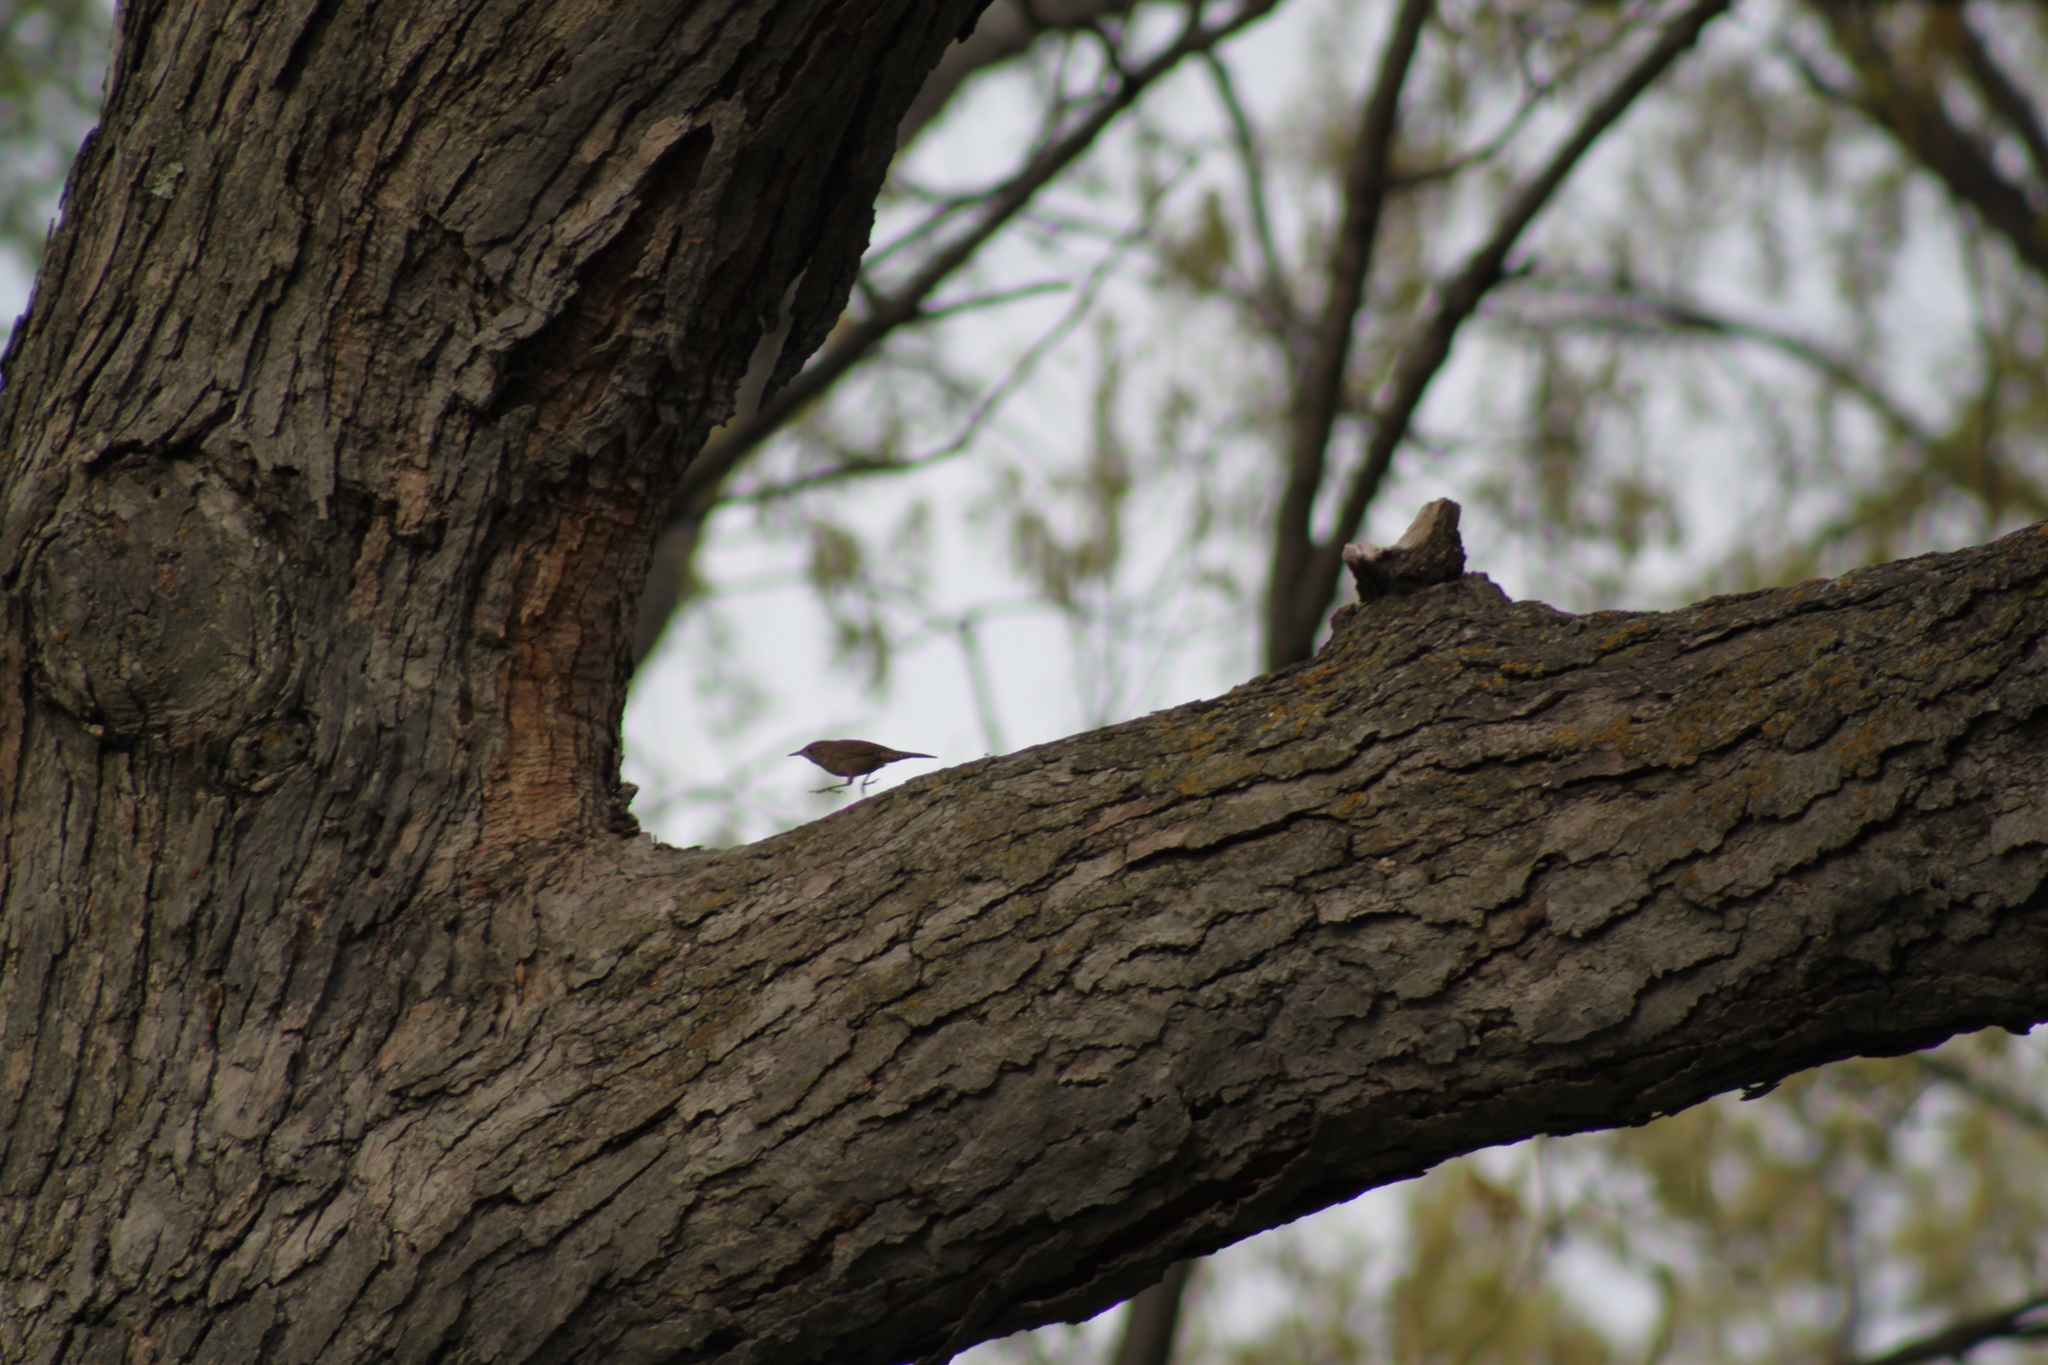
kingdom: Animalia
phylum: Chordata
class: Aves
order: Passeriformes
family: Troglodytidae
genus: Troglodytes
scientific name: Troglodytes aedon
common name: House wren
